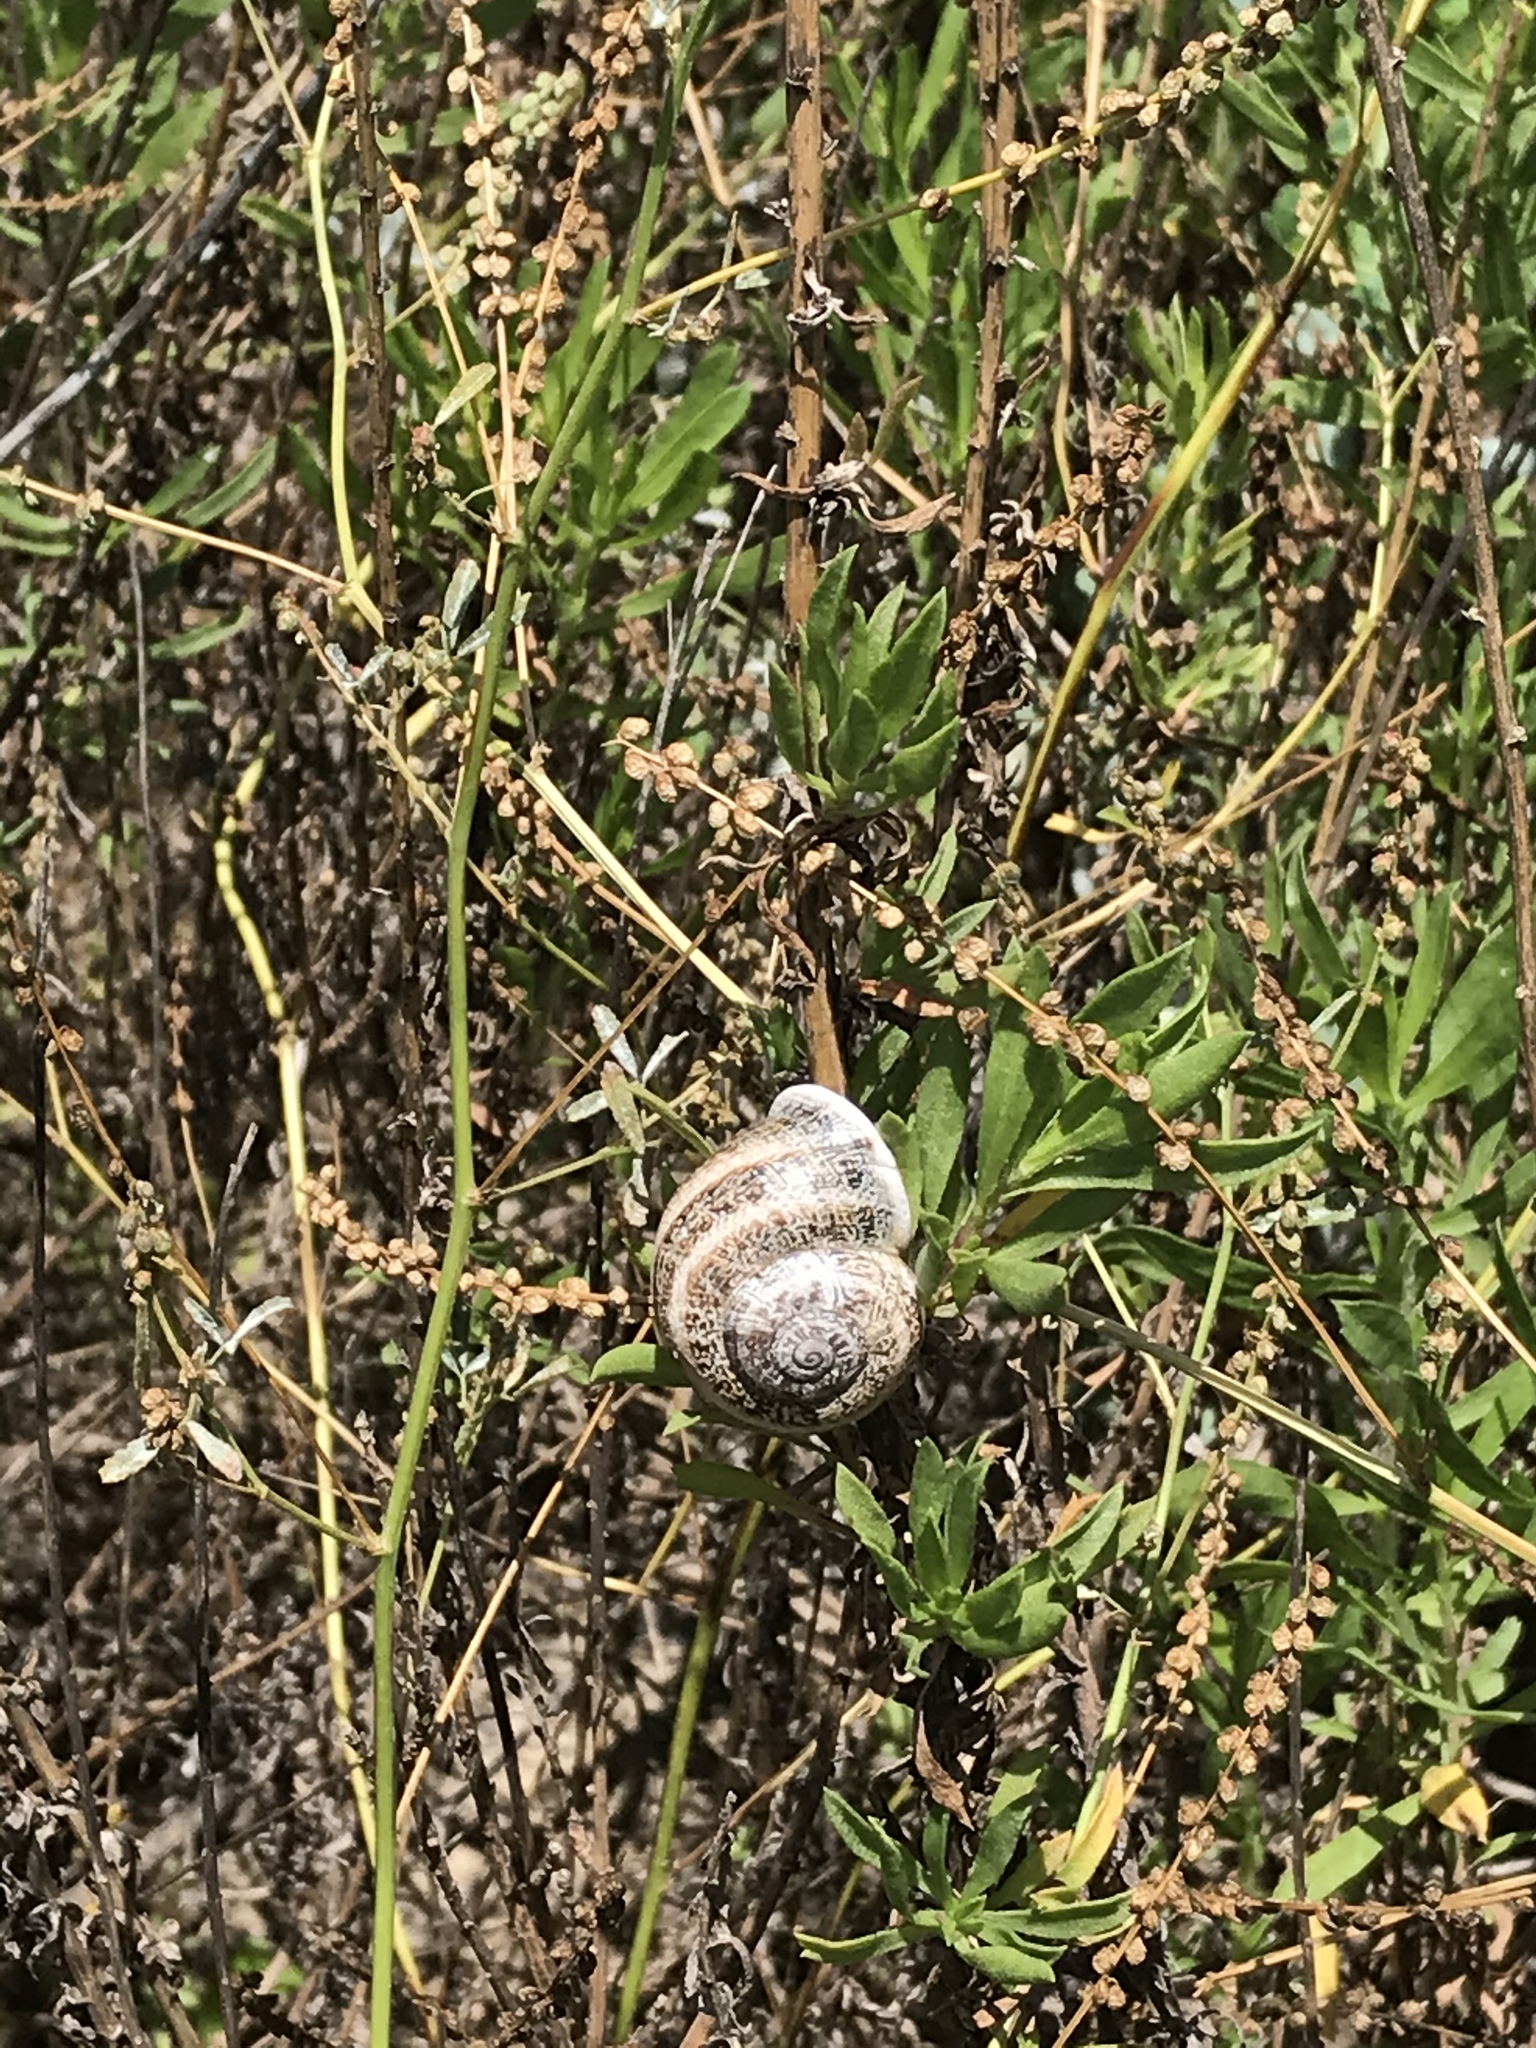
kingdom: Animalia
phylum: Mollusca
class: Gastropoda
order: Stylommatophora
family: Helicidae
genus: Otala
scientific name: Otala lactea
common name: Milk snail
